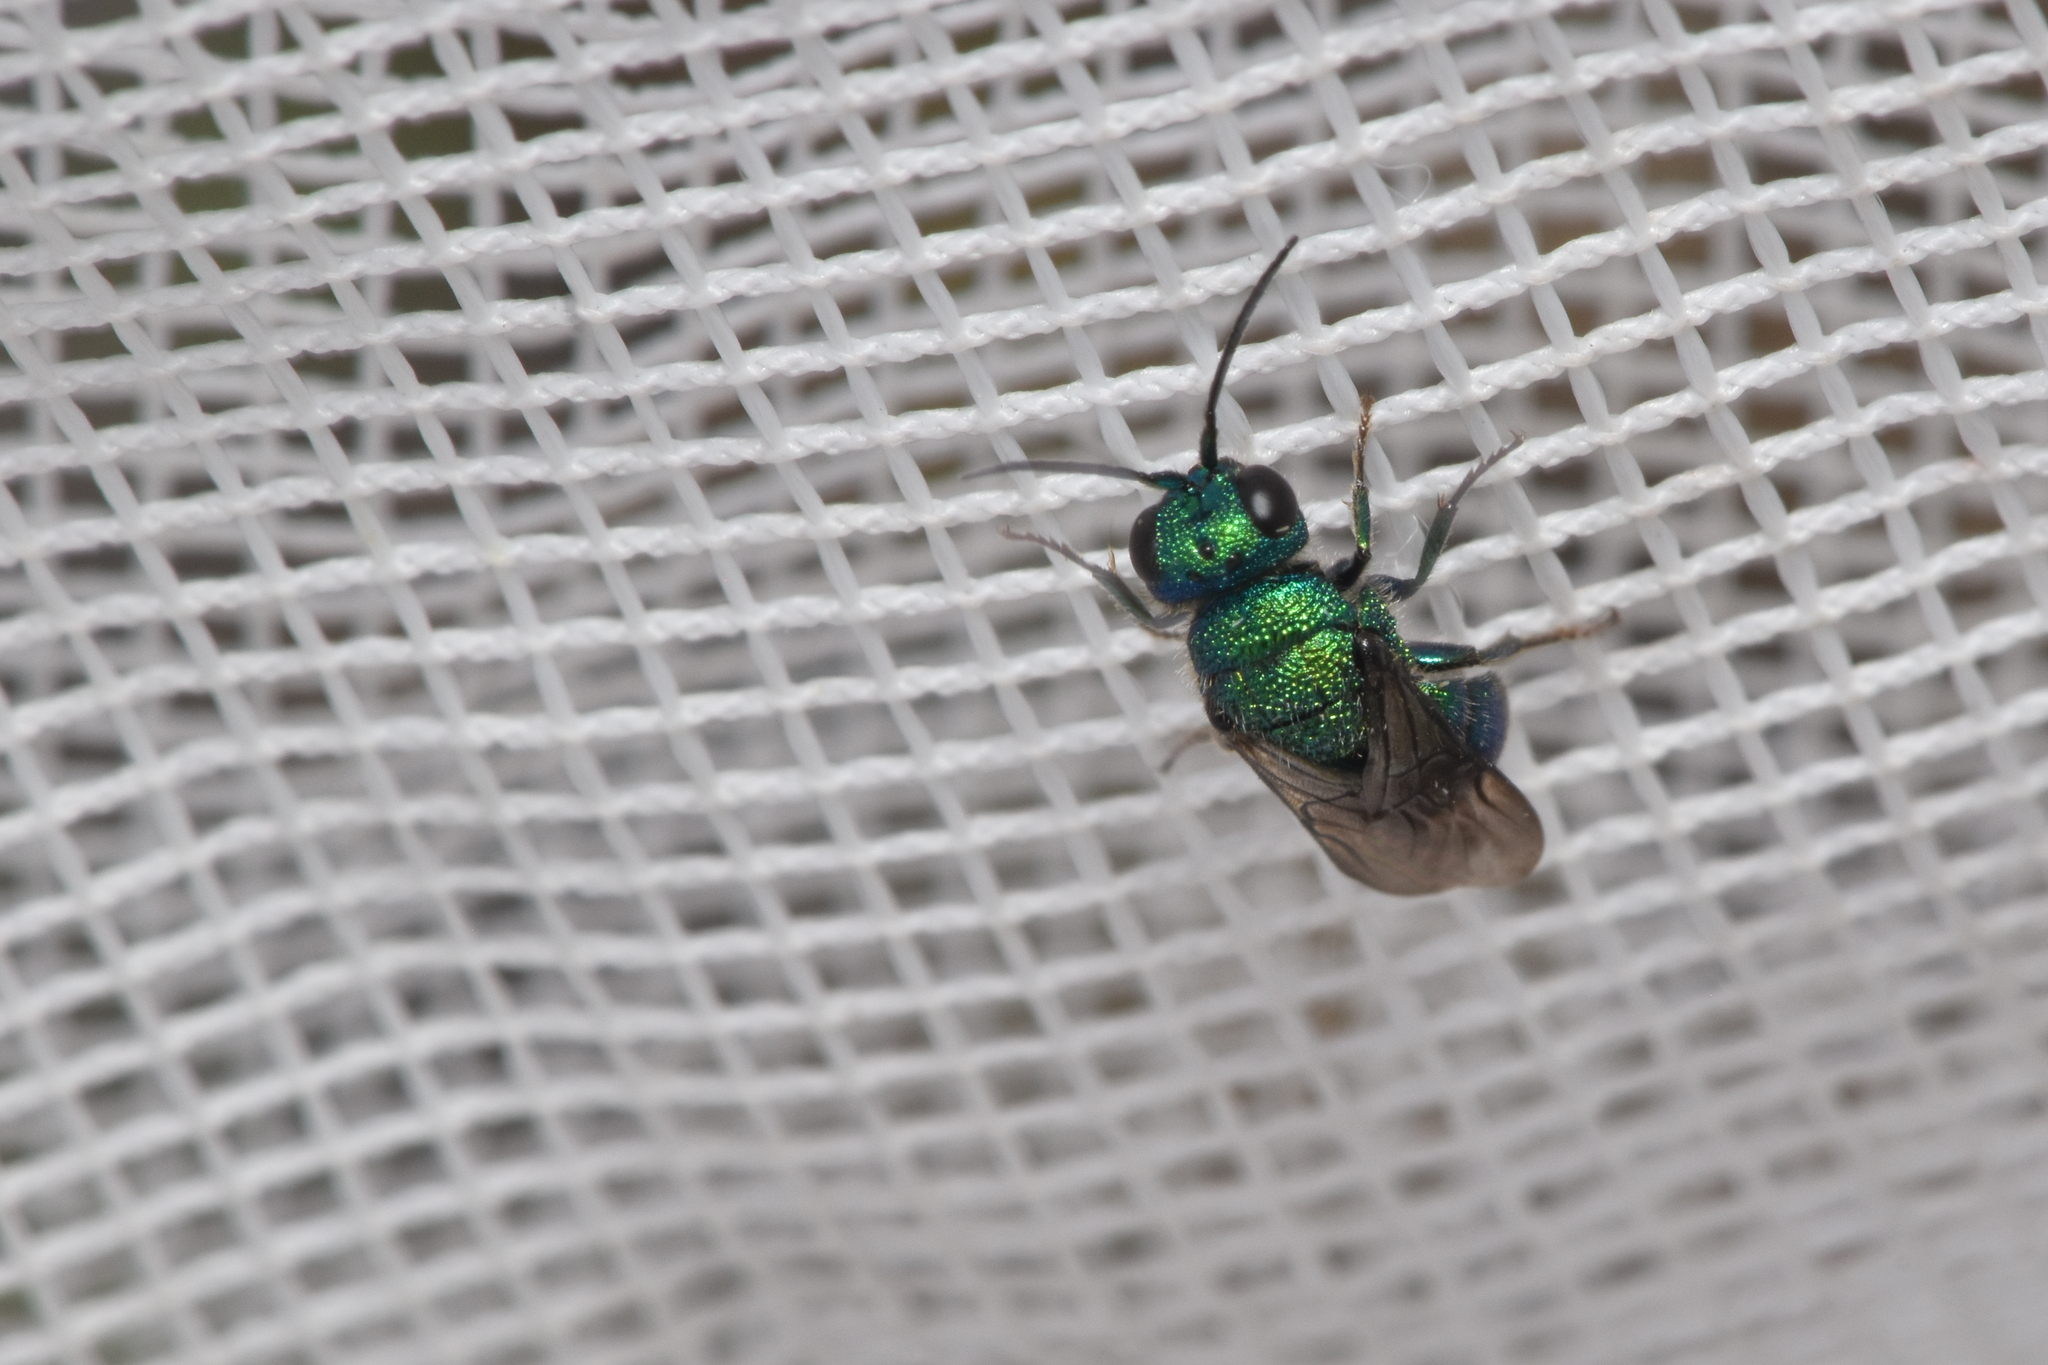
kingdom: Animalia
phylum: Arthropoda
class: Insecta
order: Hymenoptera
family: Chrysididae
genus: Holopyga
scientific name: Holopyga
